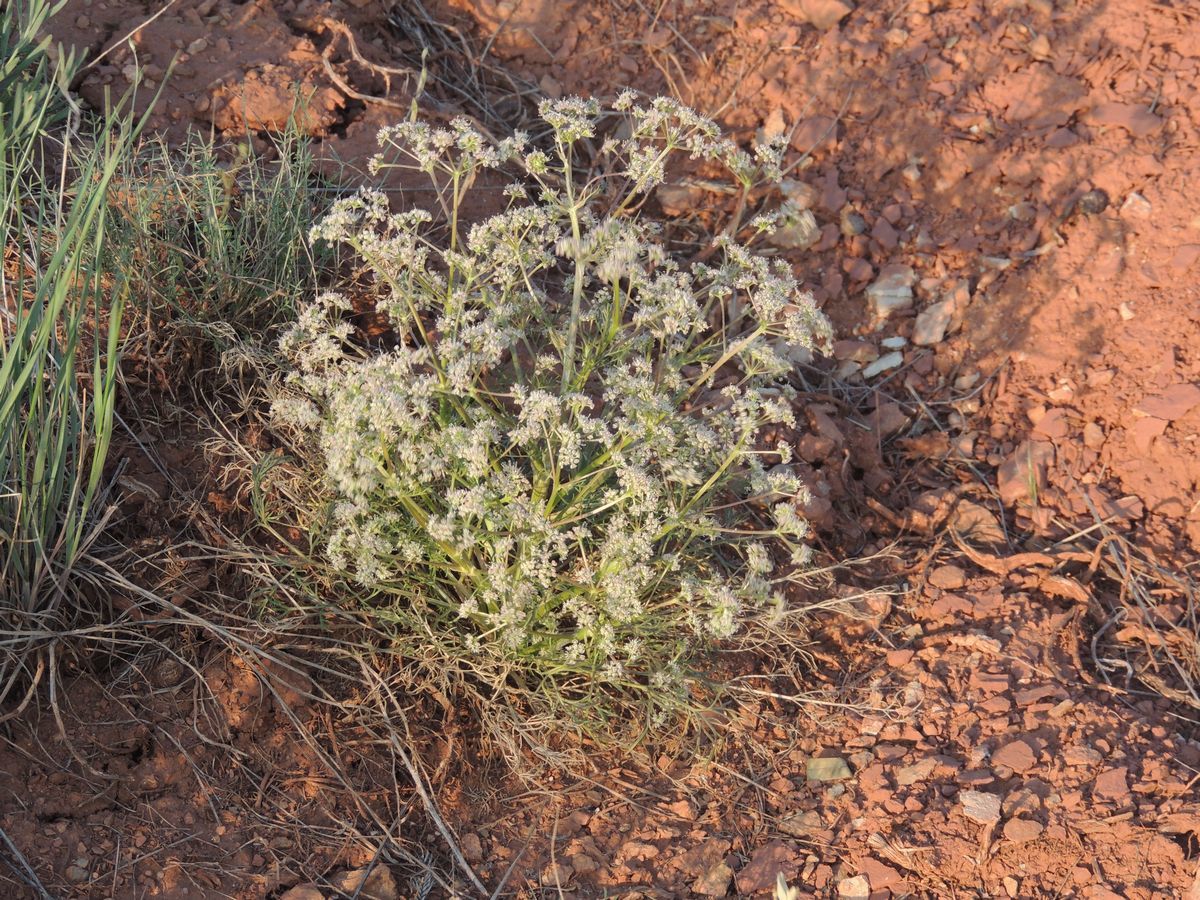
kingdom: Plantae
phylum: Tracheophyta
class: Magnoliopsida
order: Apiales
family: Apiaceae
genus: Trinia
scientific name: Trinia hispida
